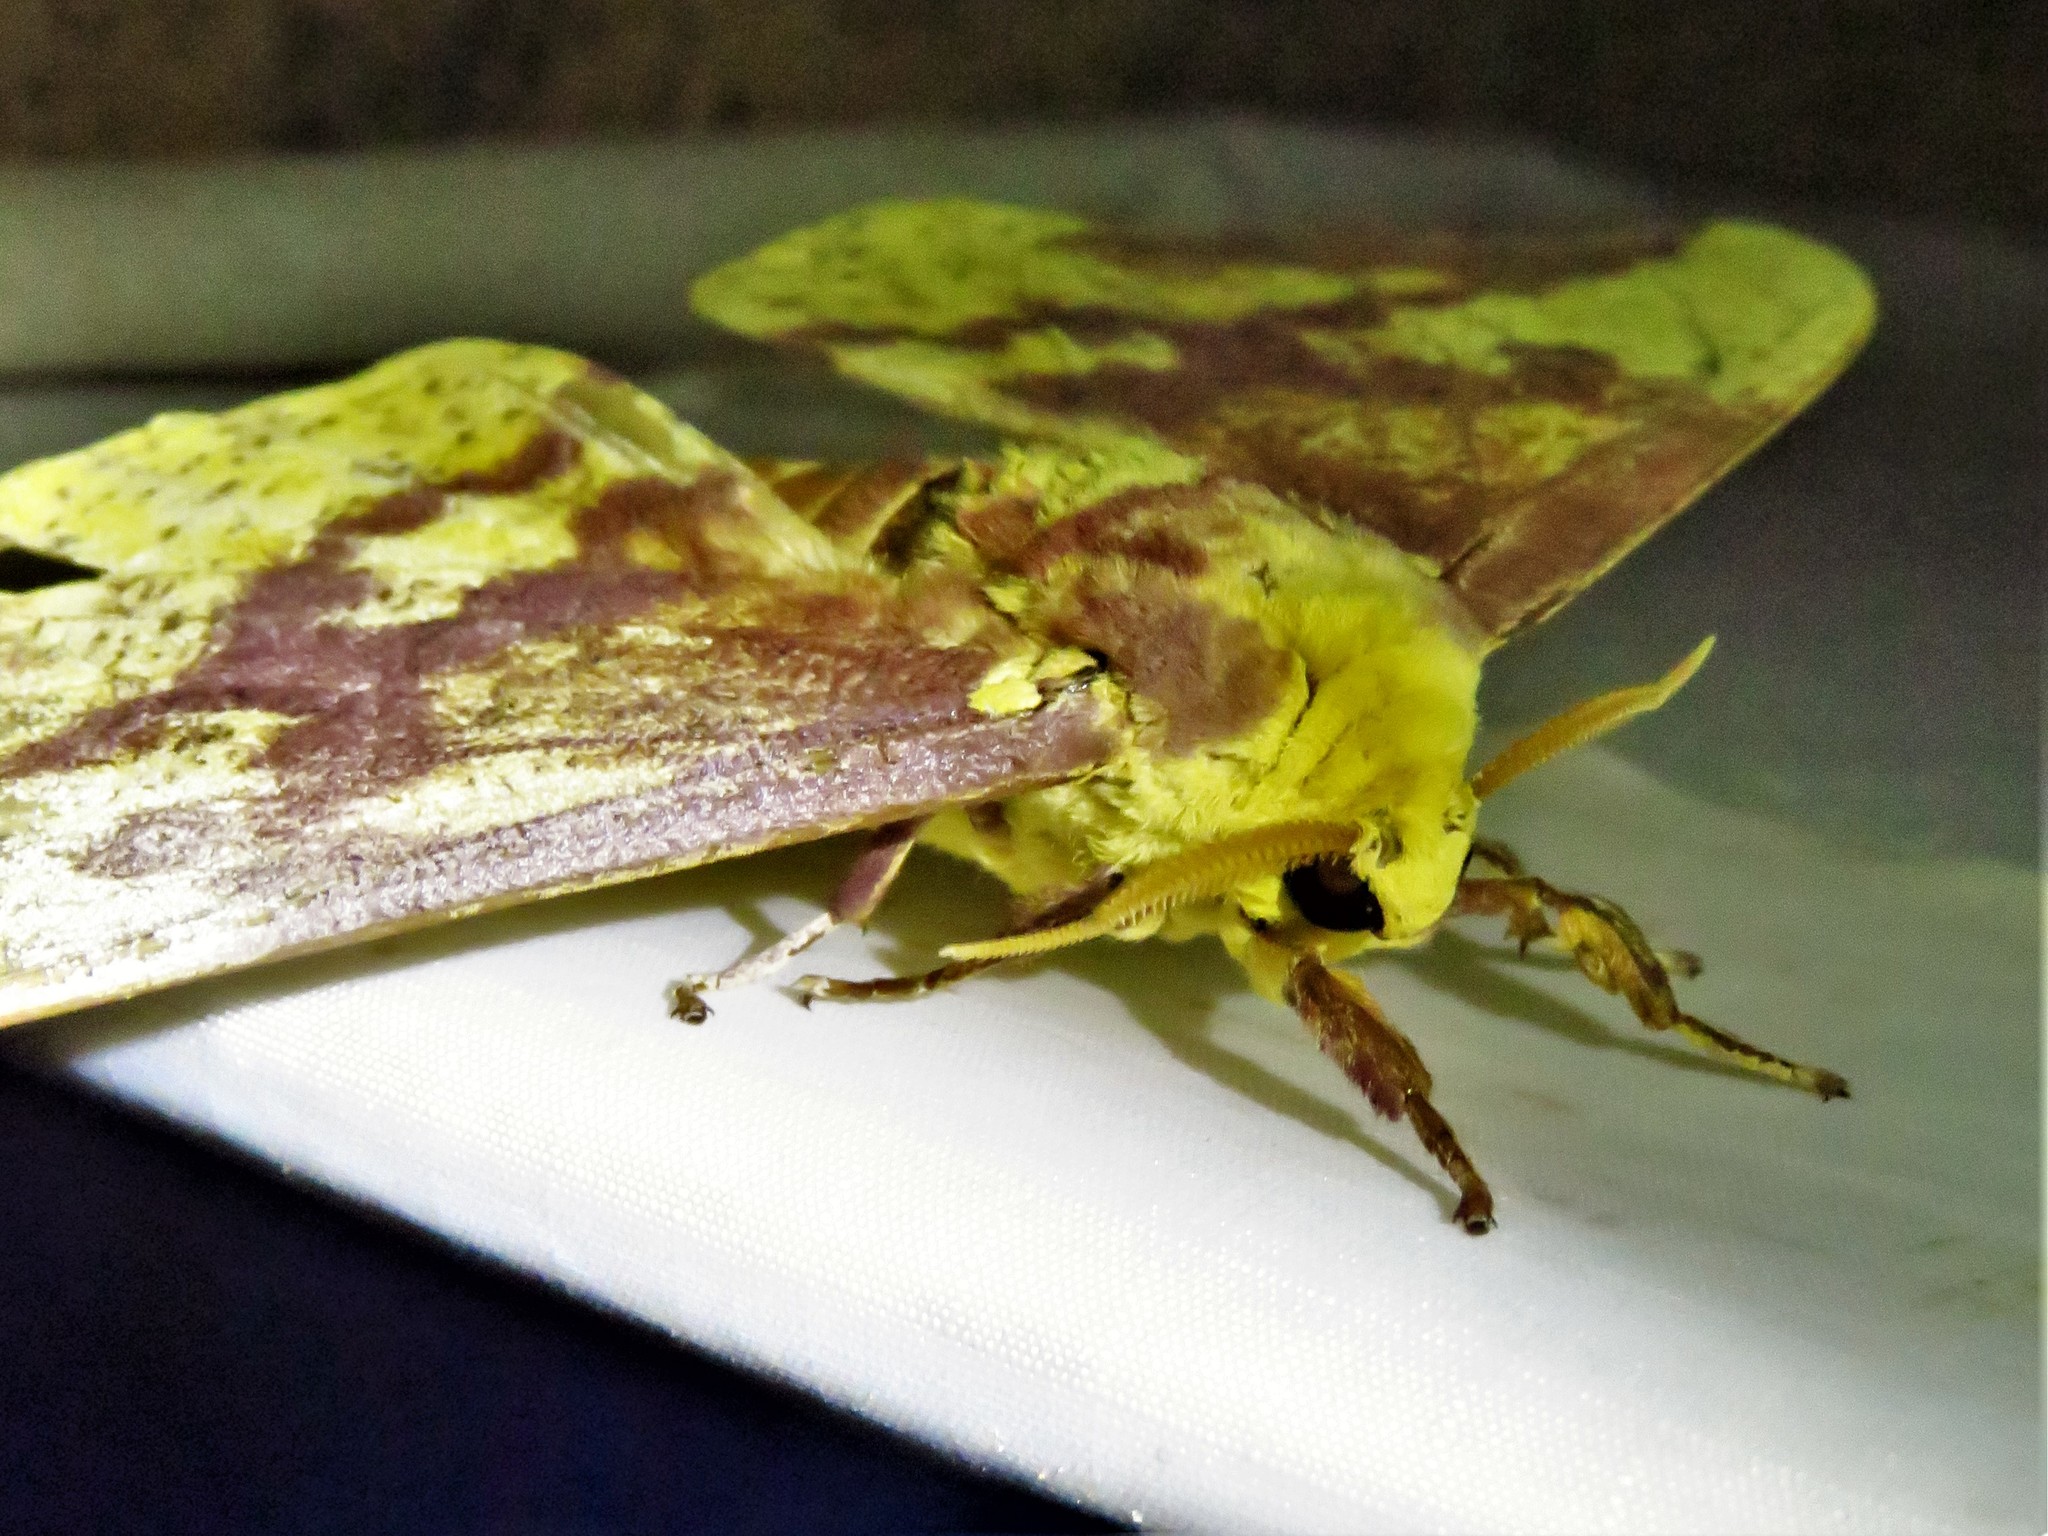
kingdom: Animalia
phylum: Arthropoda
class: Insecta
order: Lepidoptera
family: Saturniidae
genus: Eacles
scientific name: Eacles imperialis
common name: Imperial moth
